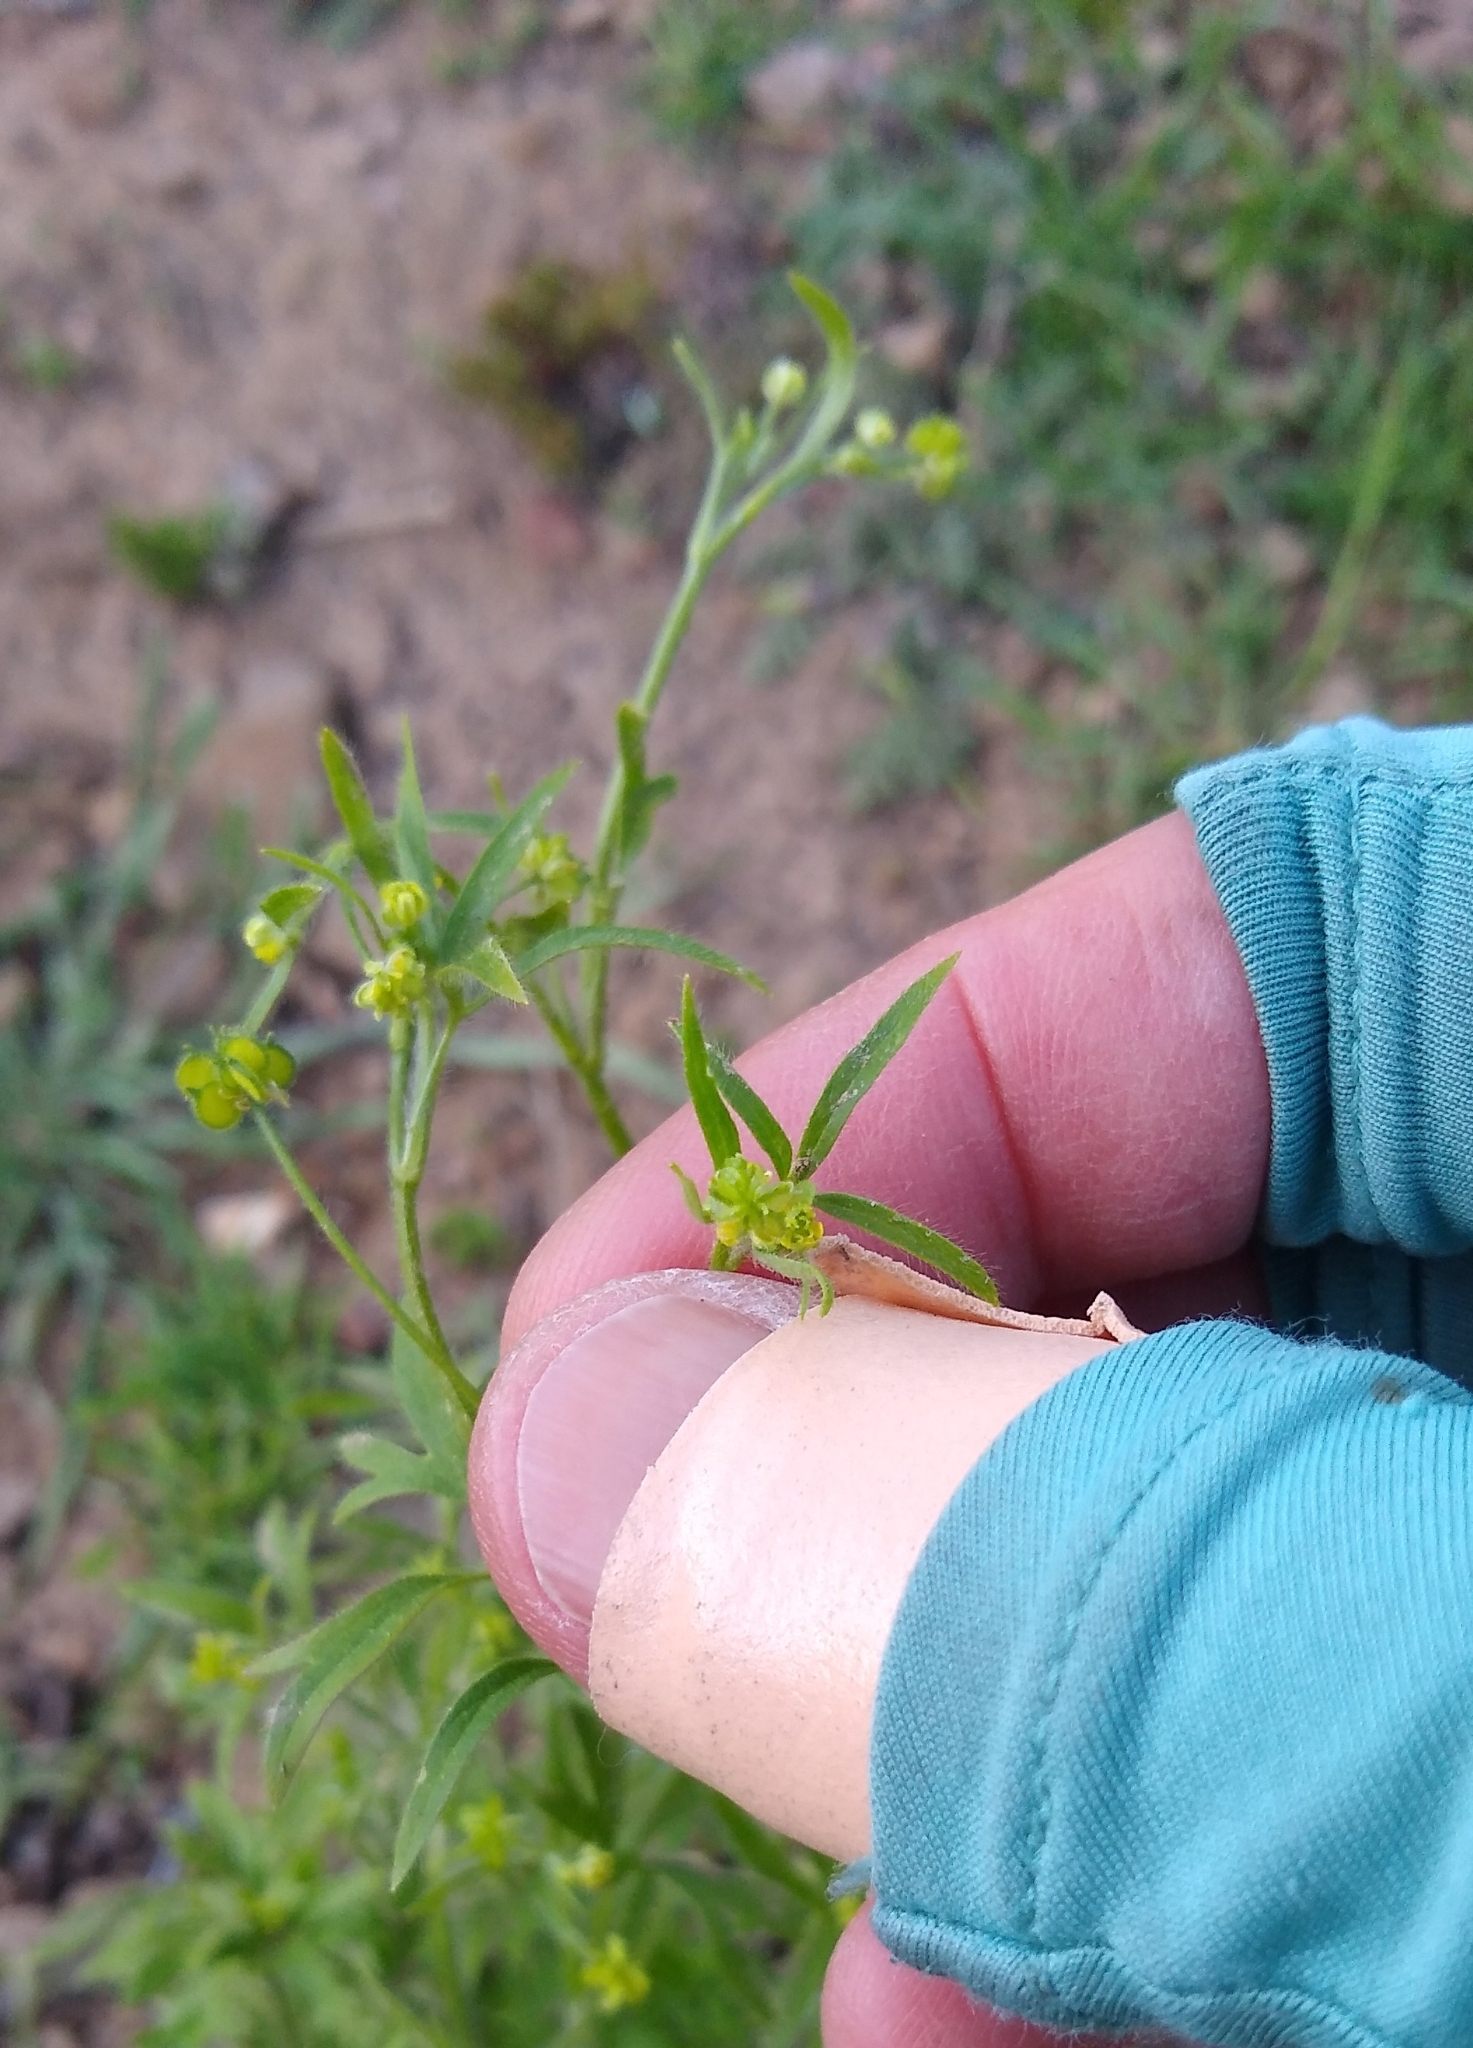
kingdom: Plantae
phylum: Tracheophyta
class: Magnoliopsida
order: Ranunculales
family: Ranunculaceae
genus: Ranunculus
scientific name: Ranunculus hebecarpus
